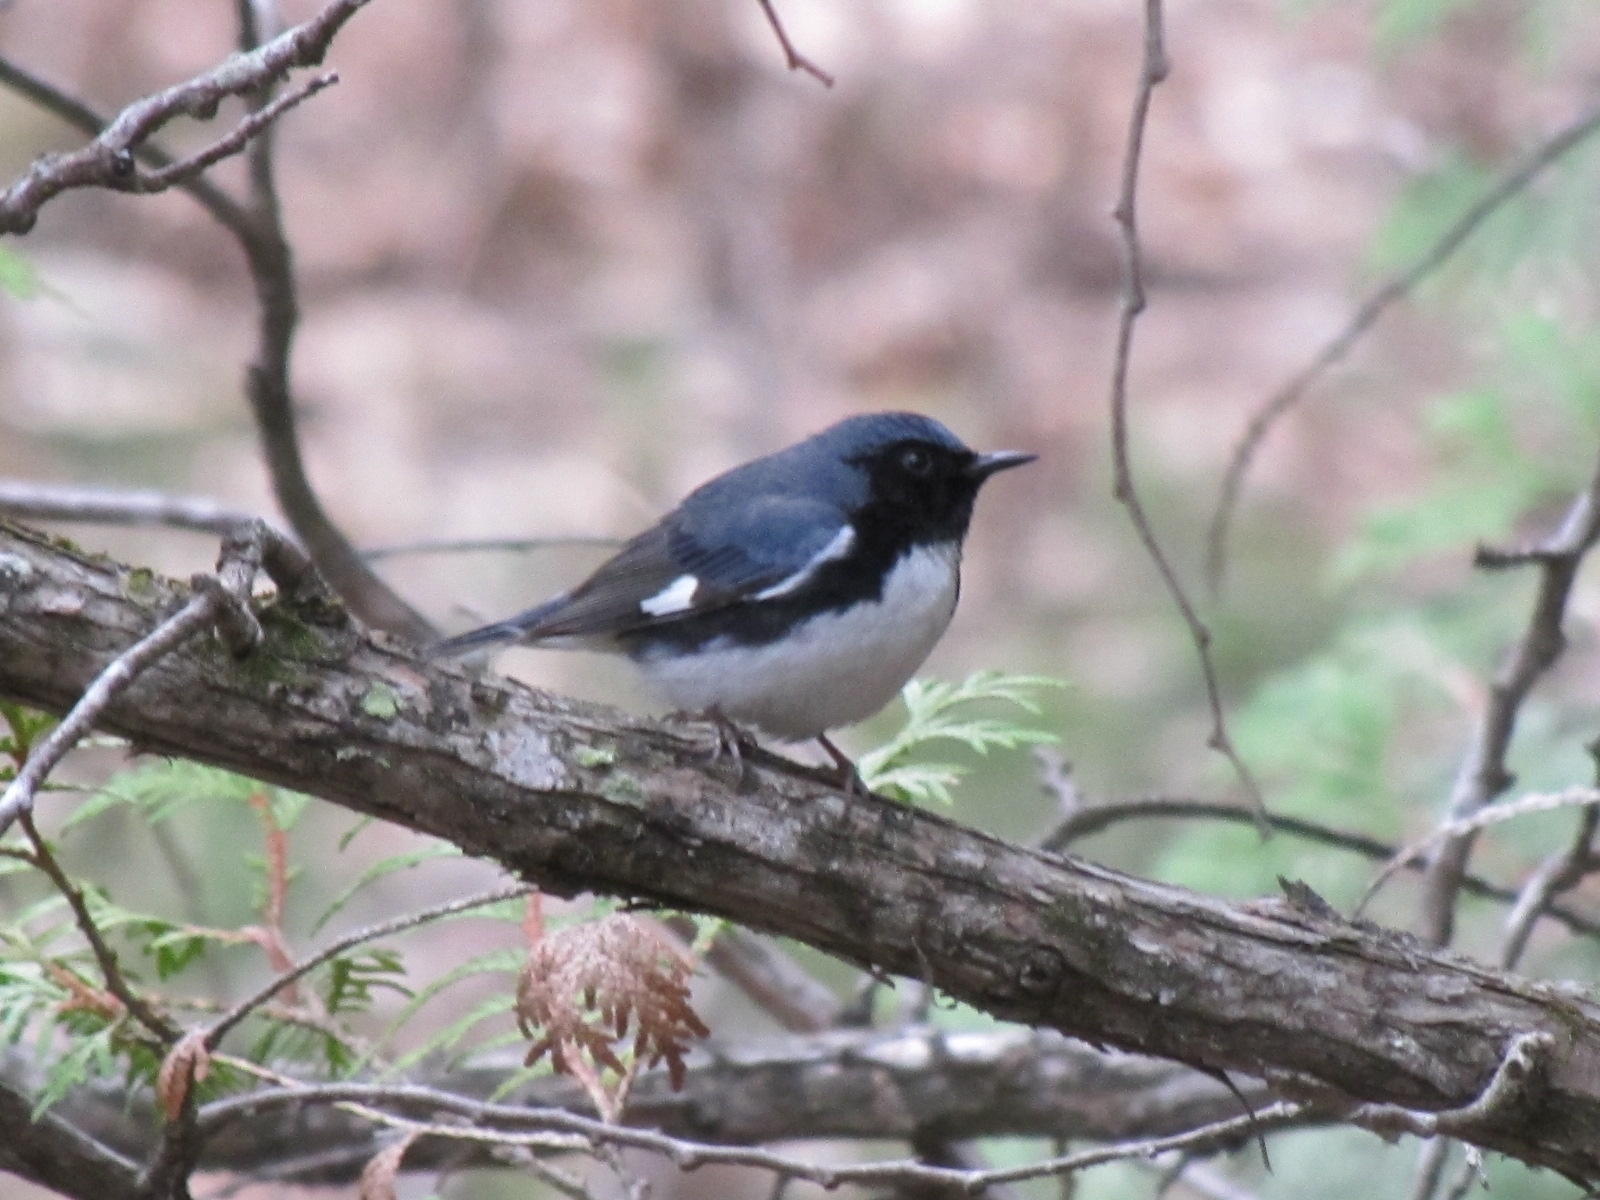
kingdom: Animalia
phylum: Chordata
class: Aves
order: Passeriformes
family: Parulidae
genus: Setophaga
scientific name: Setophaga caerulescens
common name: Black-throated blue warbler
